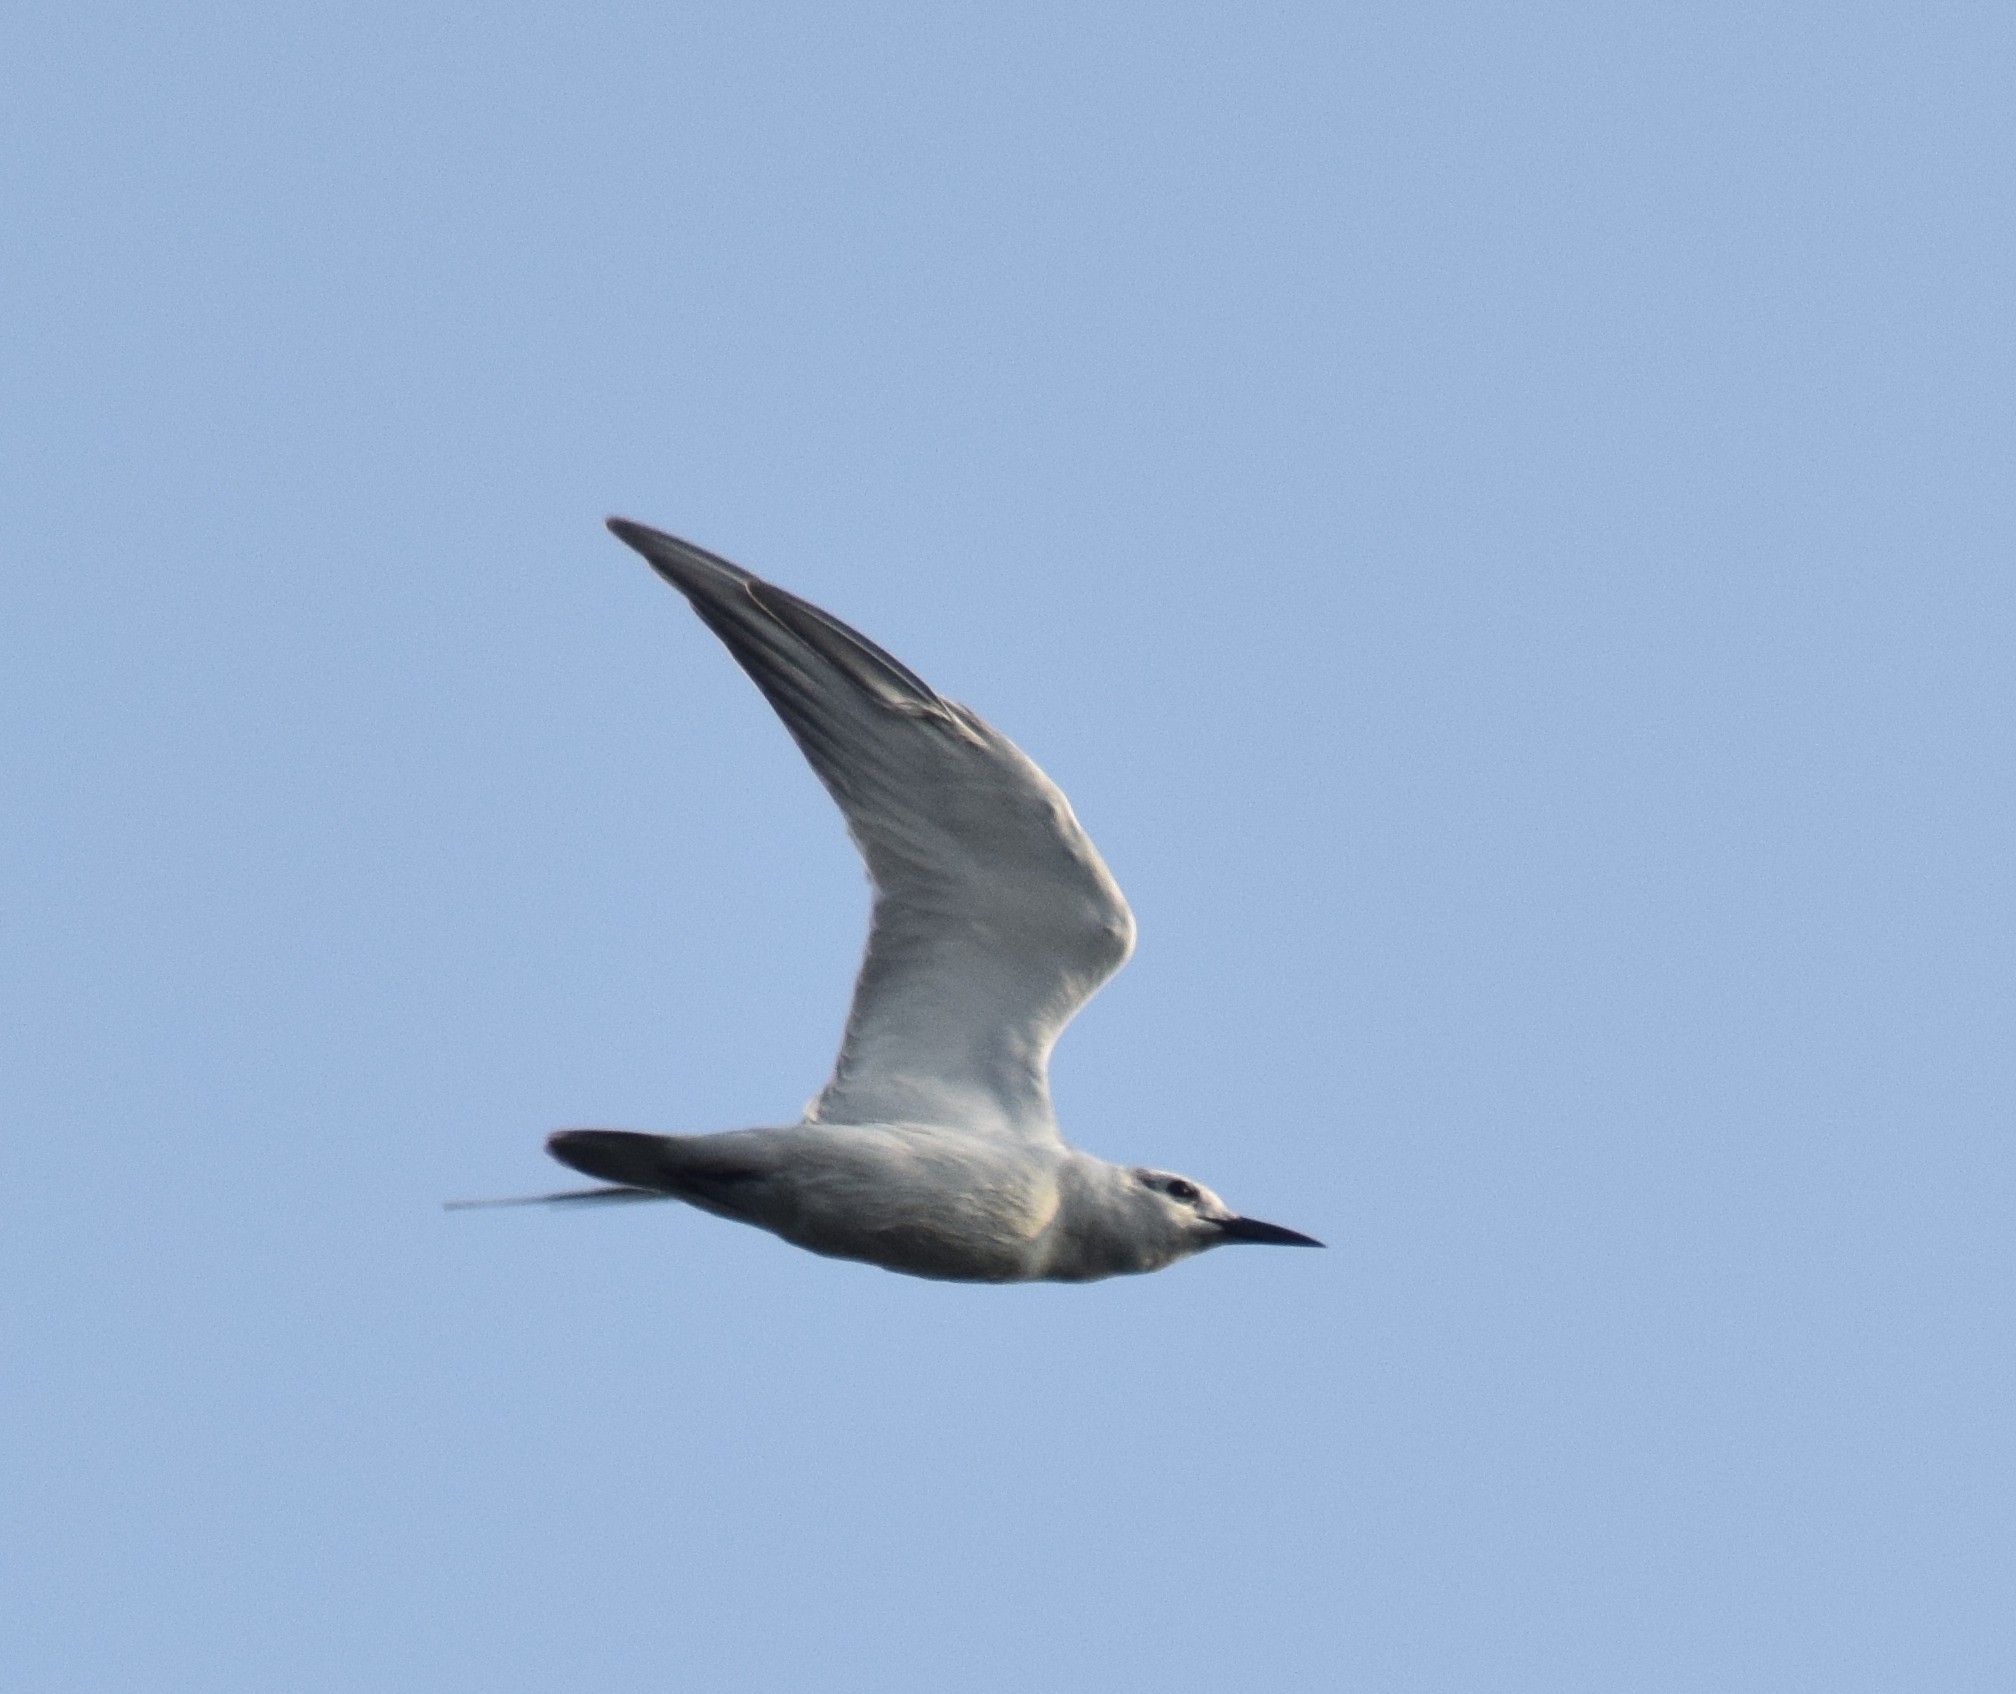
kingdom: Animalia
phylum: Chordata
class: Aves
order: Charadriiformes
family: Laridae
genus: Chlidonias
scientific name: Chlidonias hybrida
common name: Whiskered tern
